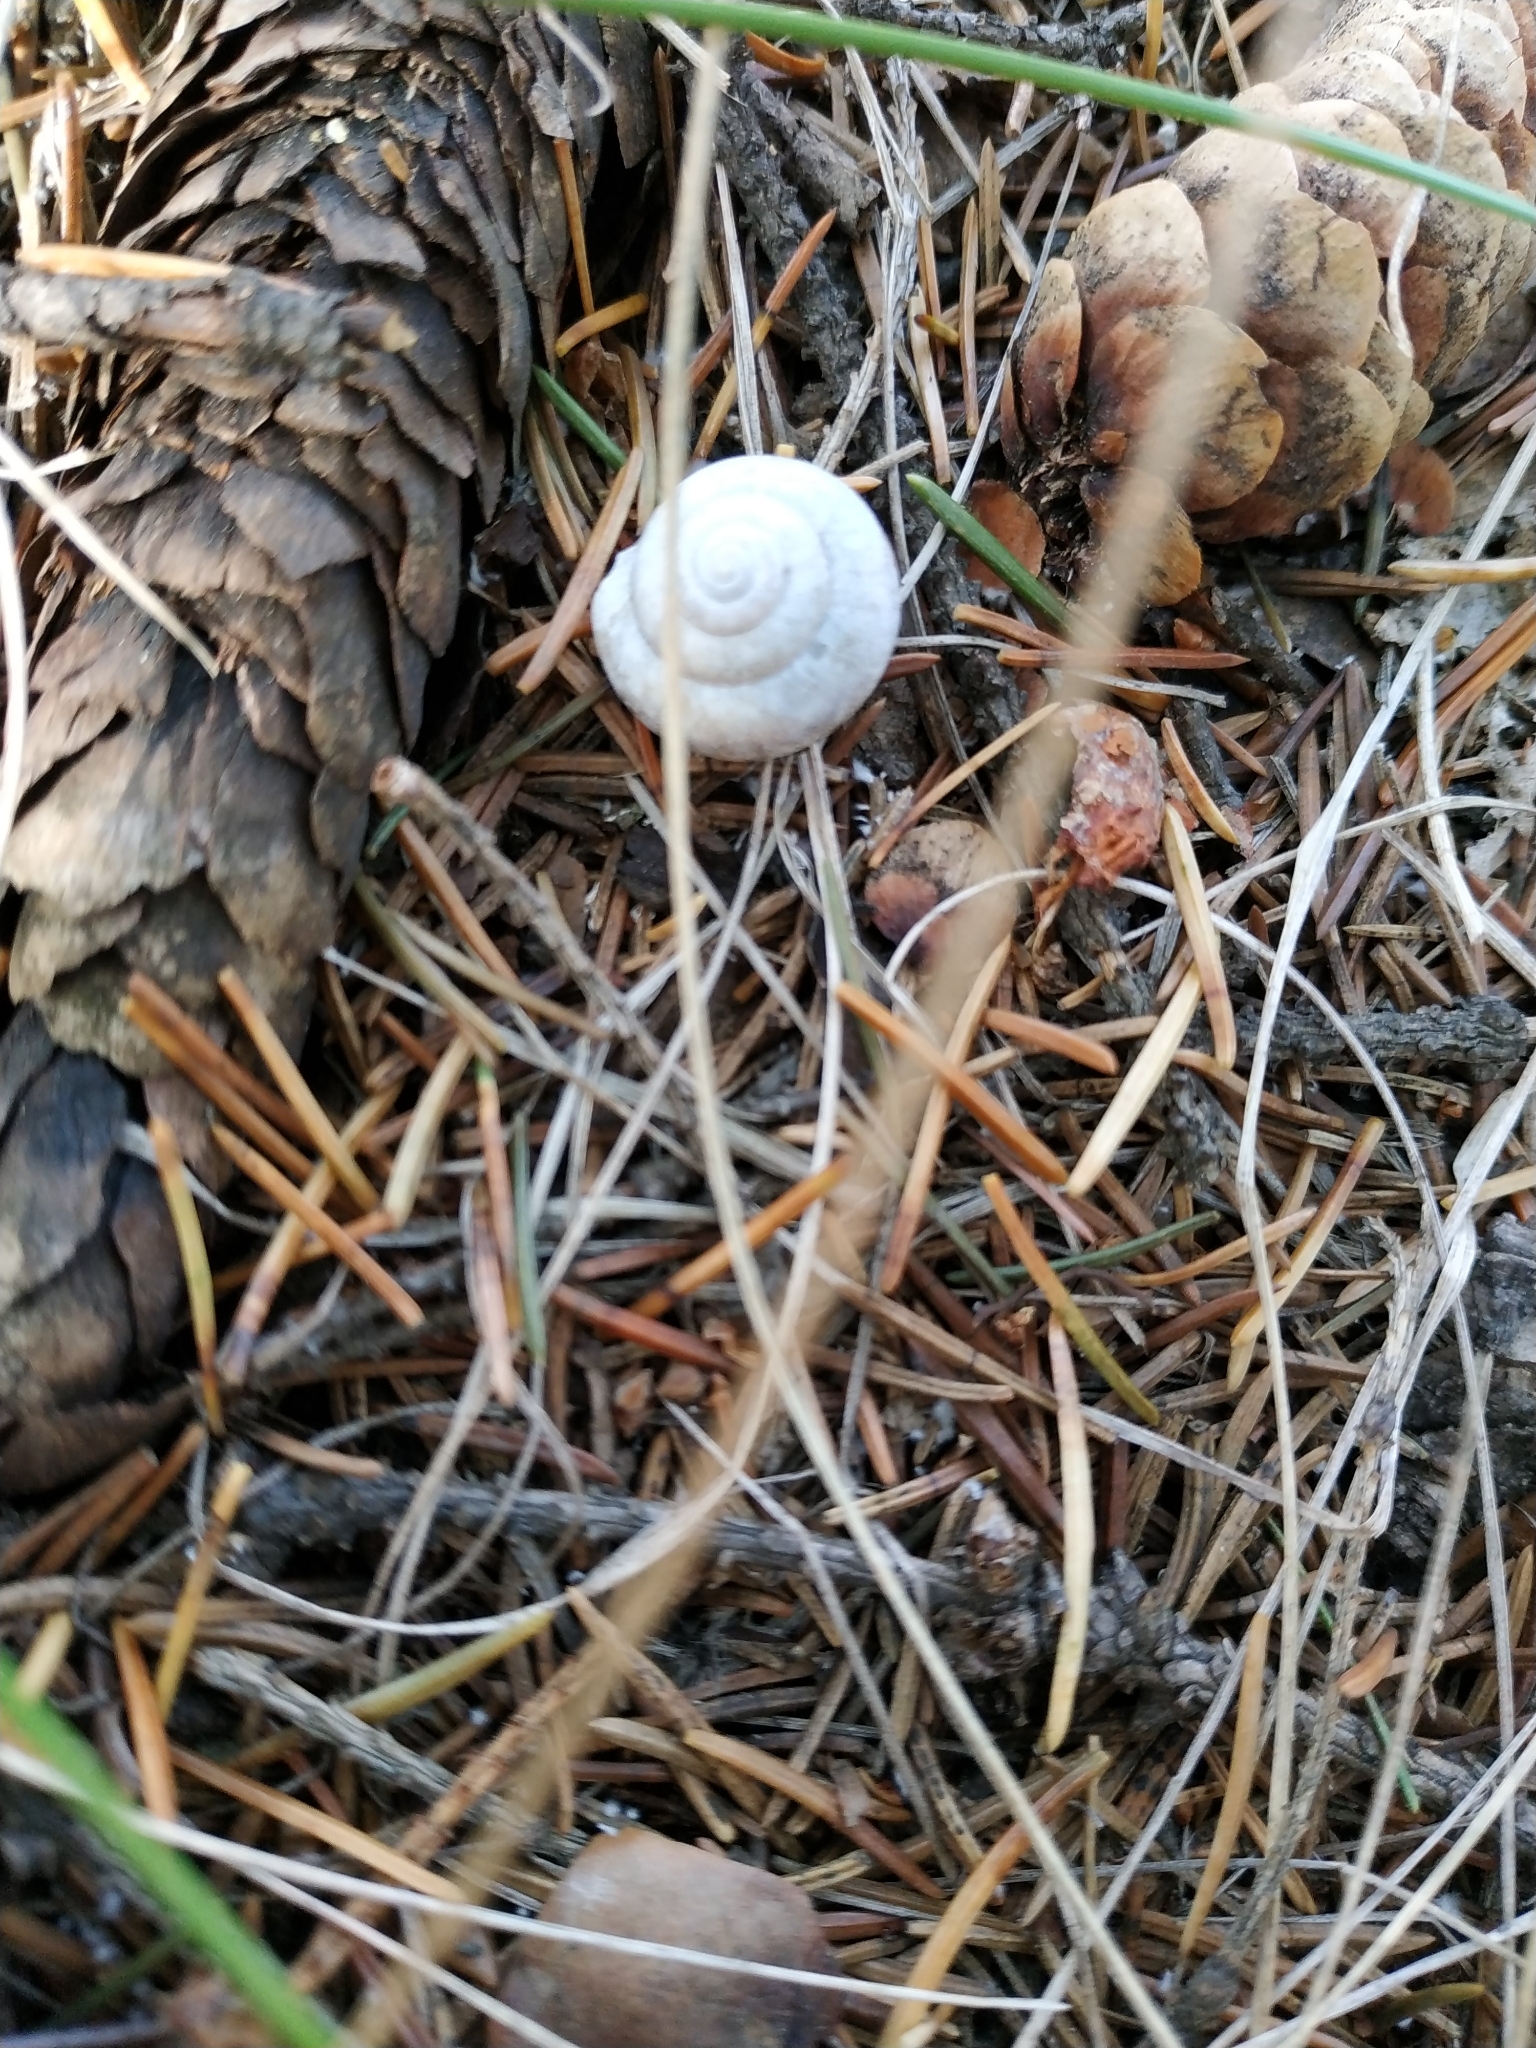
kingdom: Animalia
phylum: Mollusca
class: Gastropoda
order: Stylommatophora
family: Camaenidae
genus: Fruticicola
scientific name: Fruticicola fruticum
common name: Bush snail
